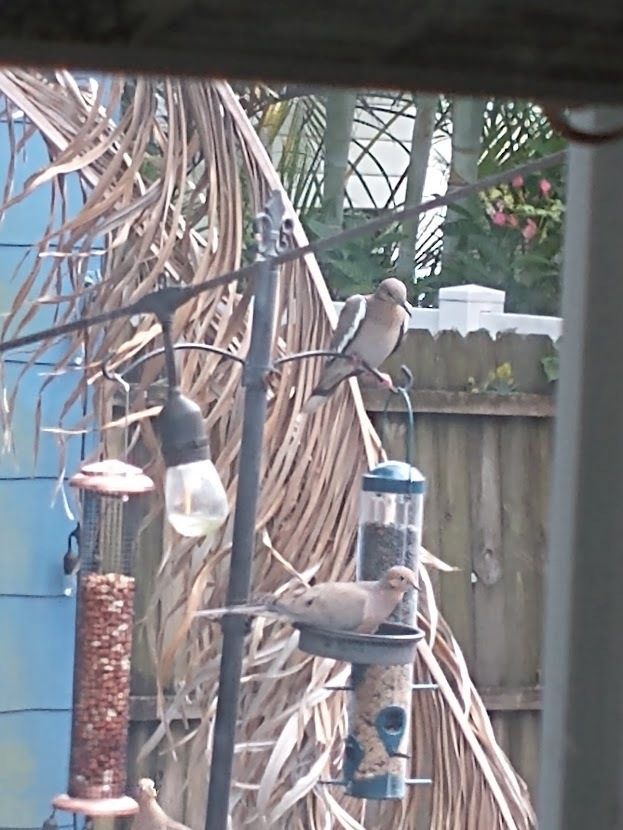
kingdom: Animalia
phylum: Chordata
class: Aves
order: Columbiformes
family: Columbidae
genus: Zenaida
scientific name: Zenaida asiatica
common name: White-winged dove
